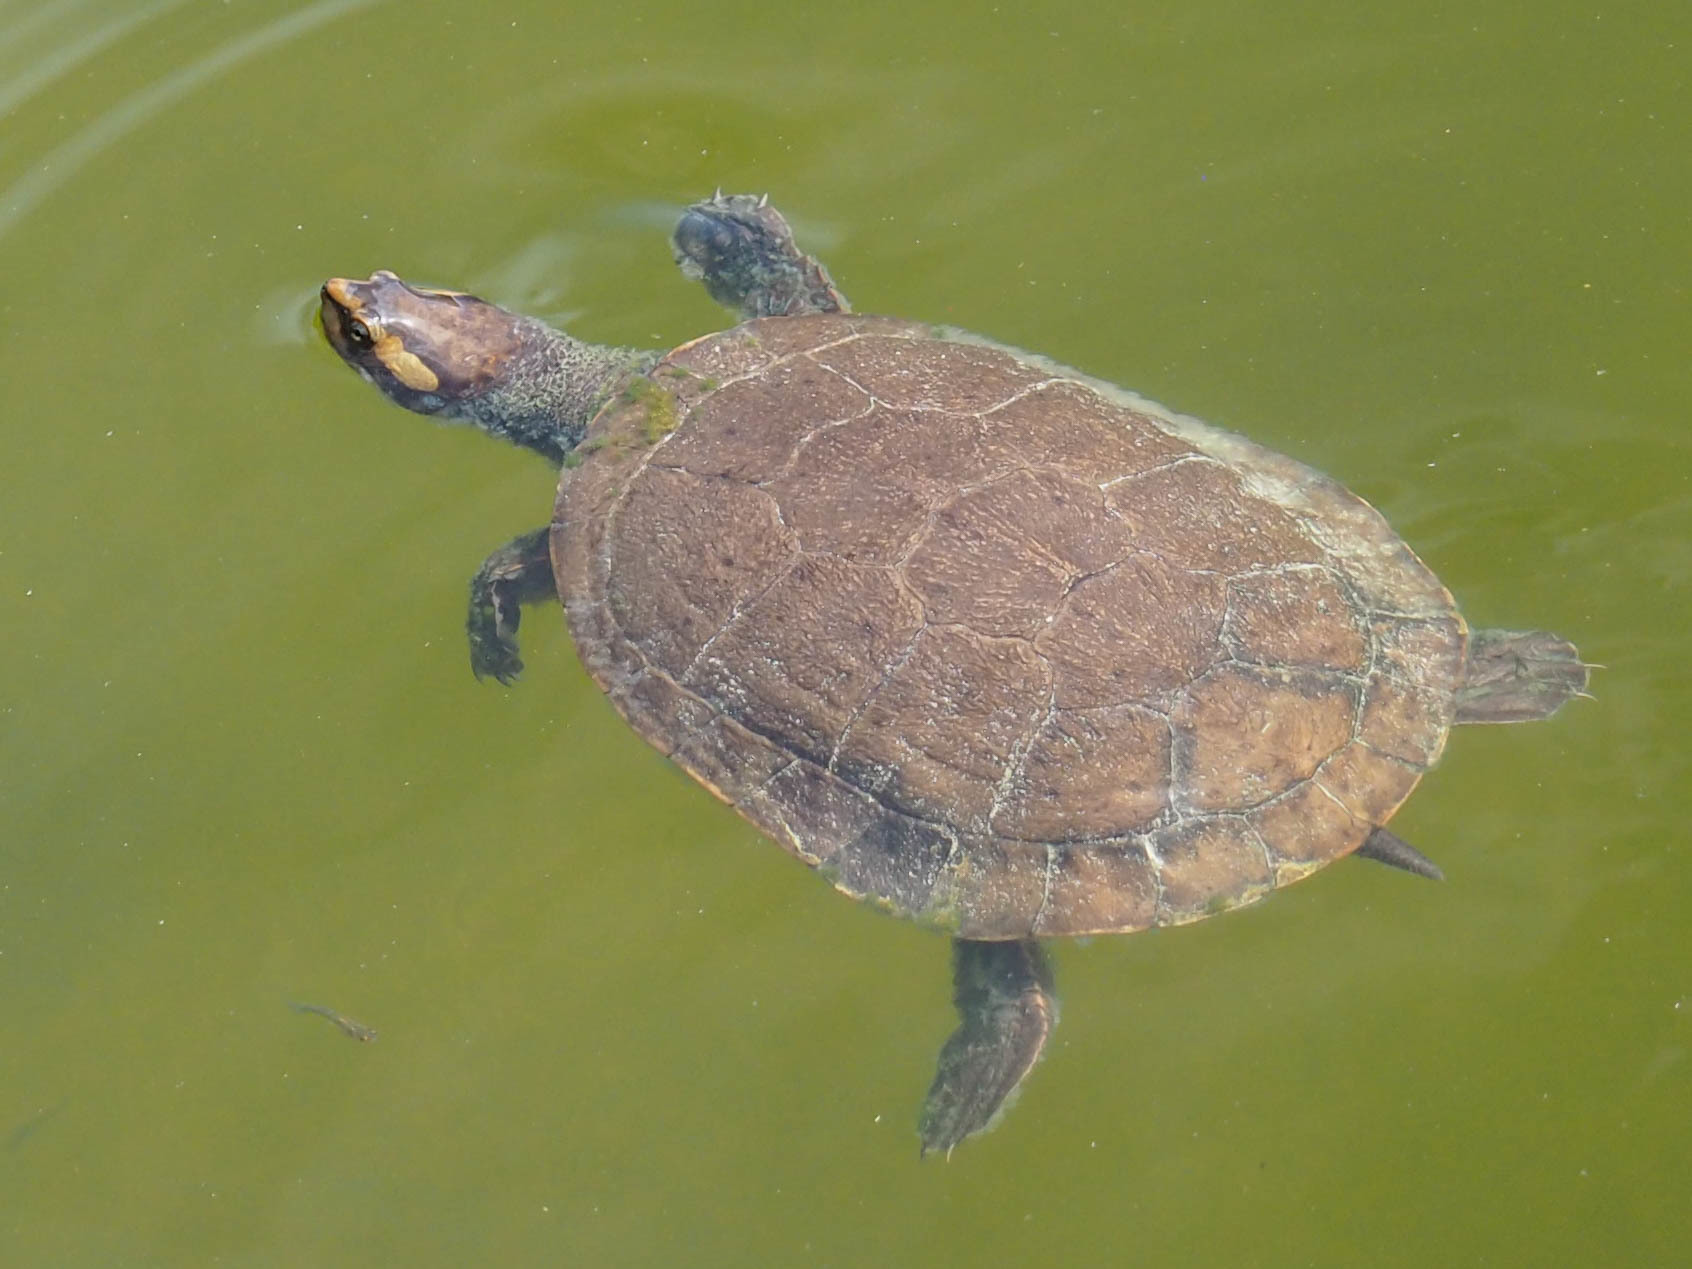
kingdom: Animalia
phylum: Chordata
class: Testudines
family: Chelidae
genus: Emydura
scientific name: Emydura subglobosa
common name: Redbelly shortneck turtle
